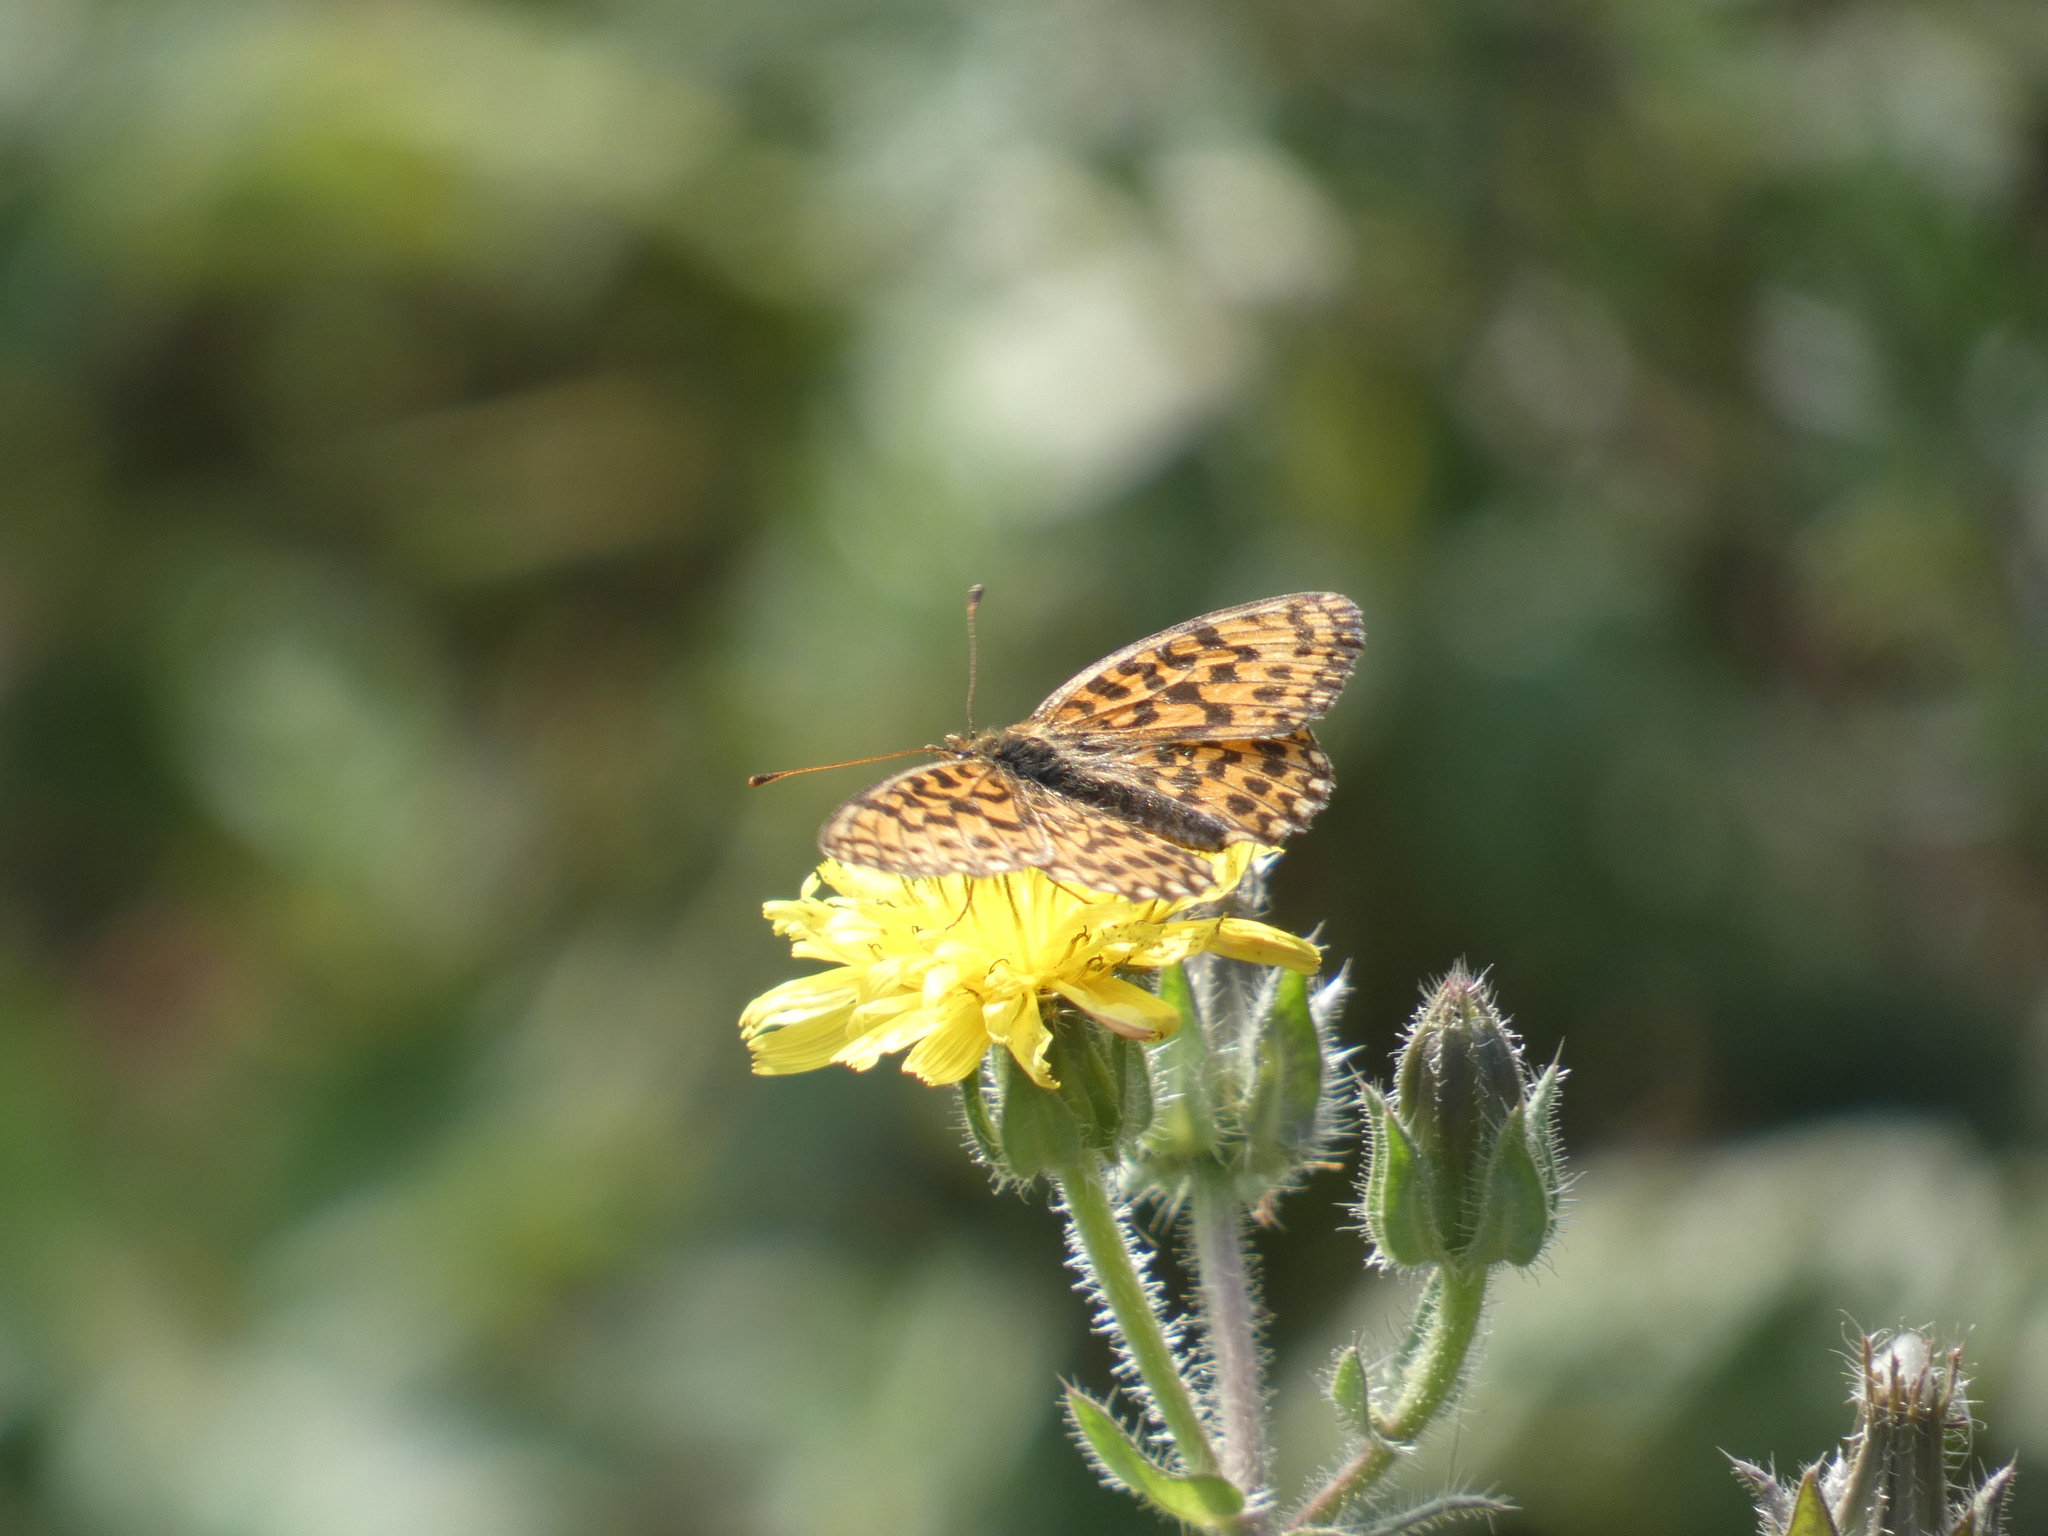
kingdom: Animalia
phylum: Arthropoda
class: Insecta
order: Lepidoptera
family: Nymphalidae
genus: Boloria
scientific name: Boloria dia
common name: Weaver's fritillary
